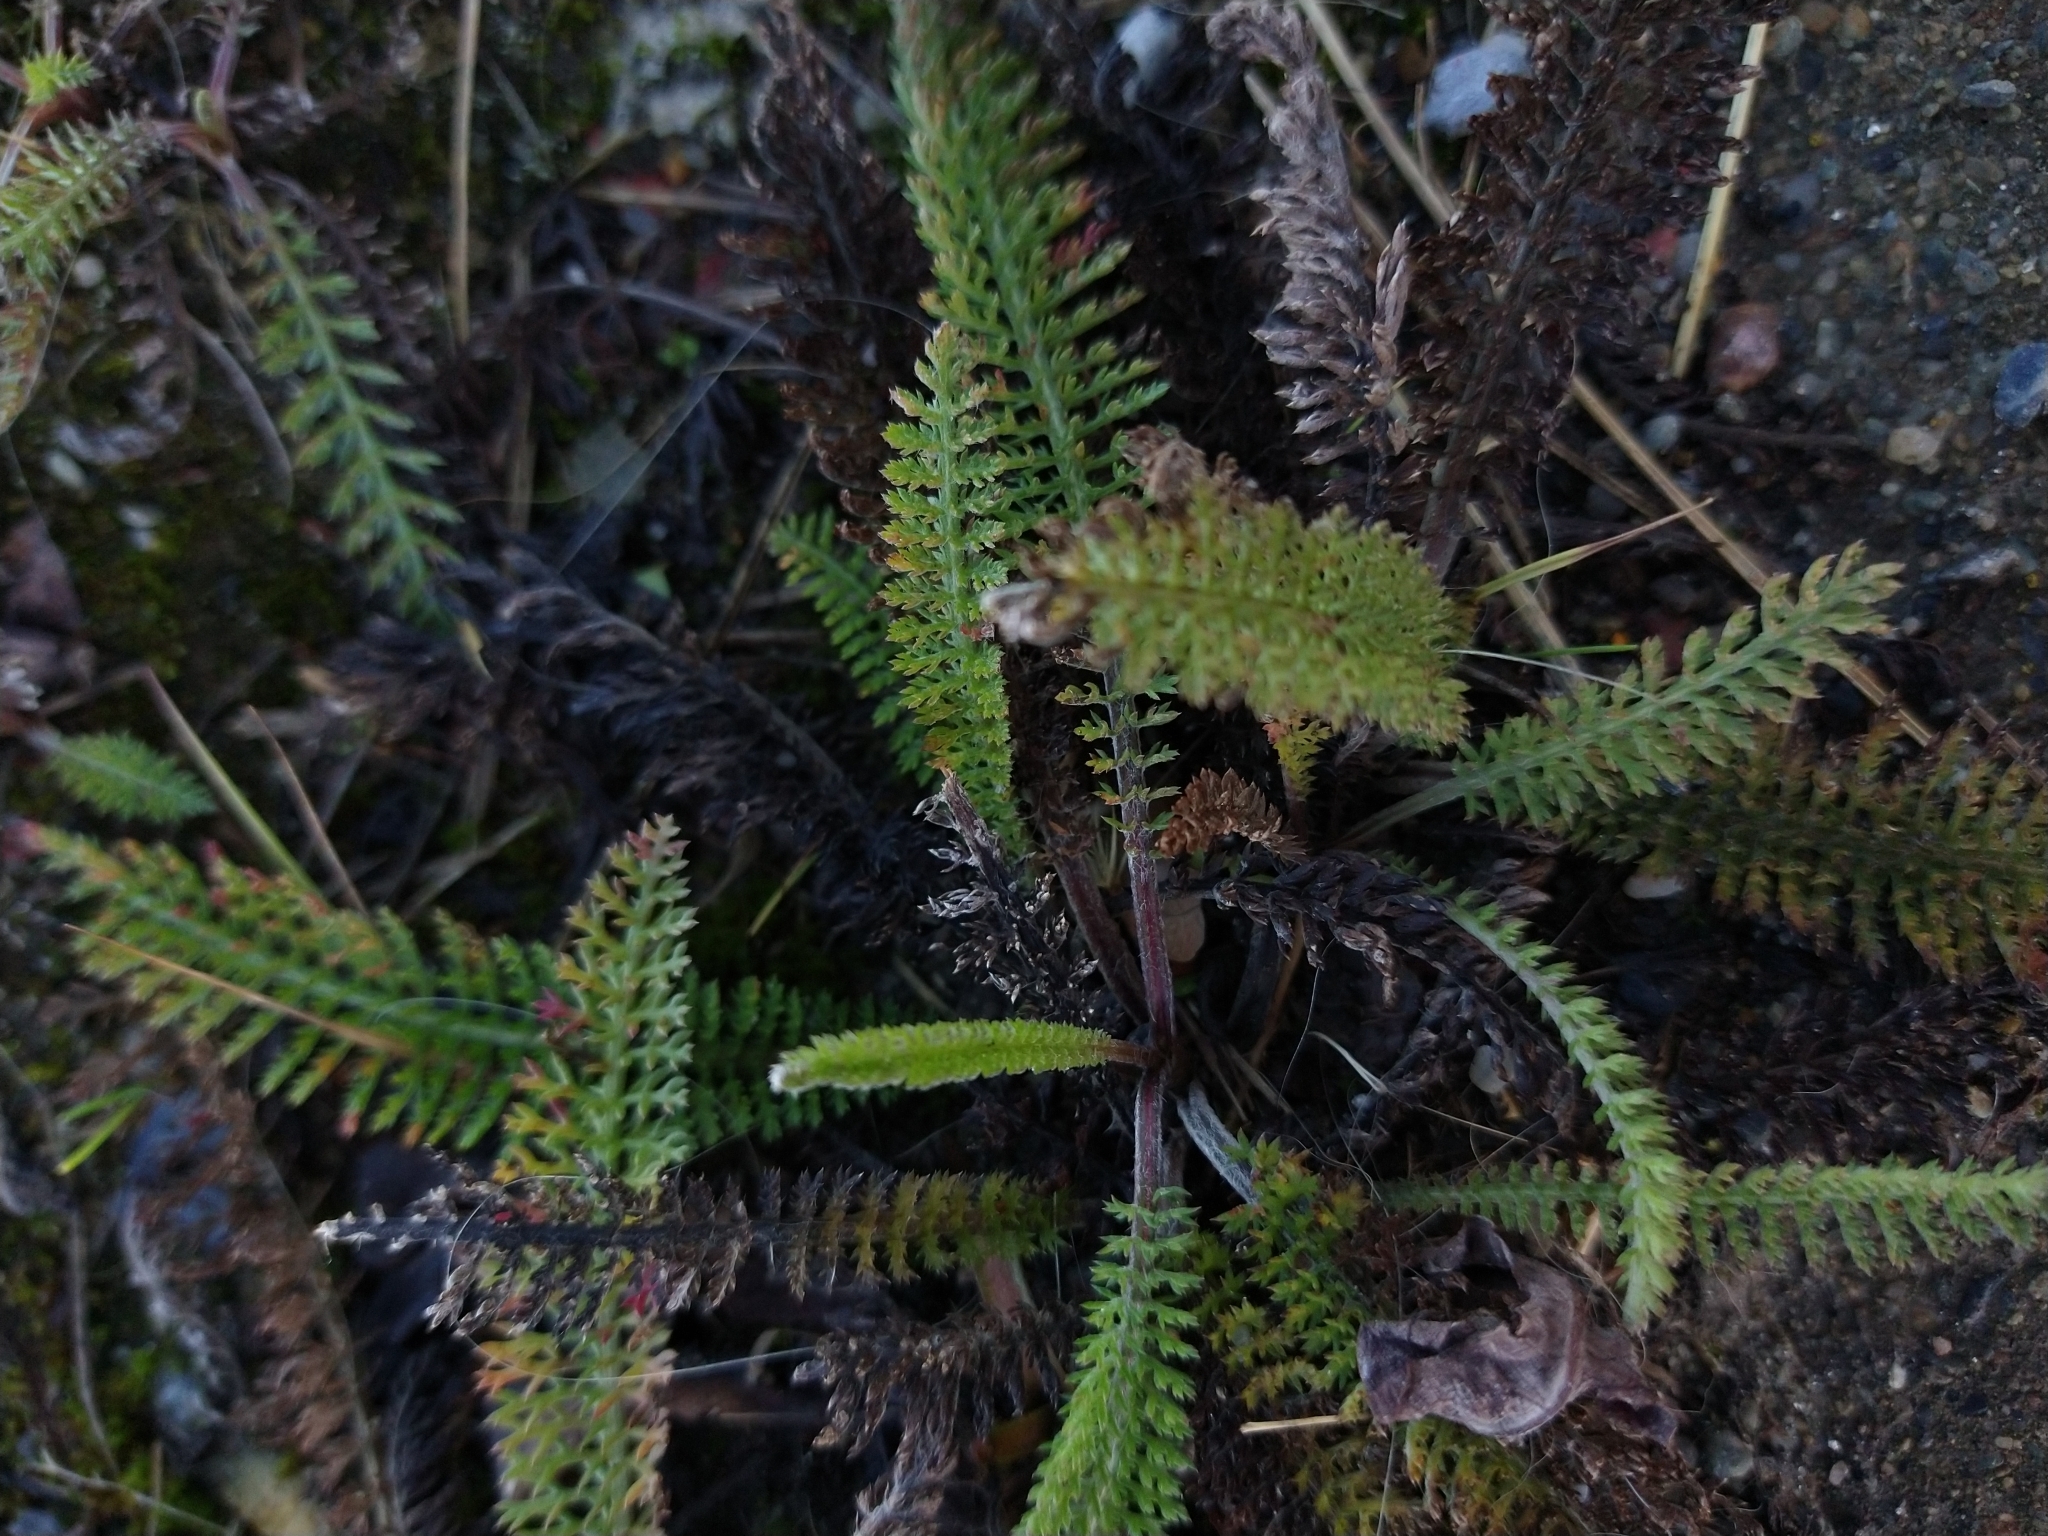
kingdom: Plantae
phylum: Tracheophyta
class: Magnoliopsida
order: Asterales
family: Asteraceae
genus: Achillea
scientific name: Achillea millefolium
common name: Yarrow
